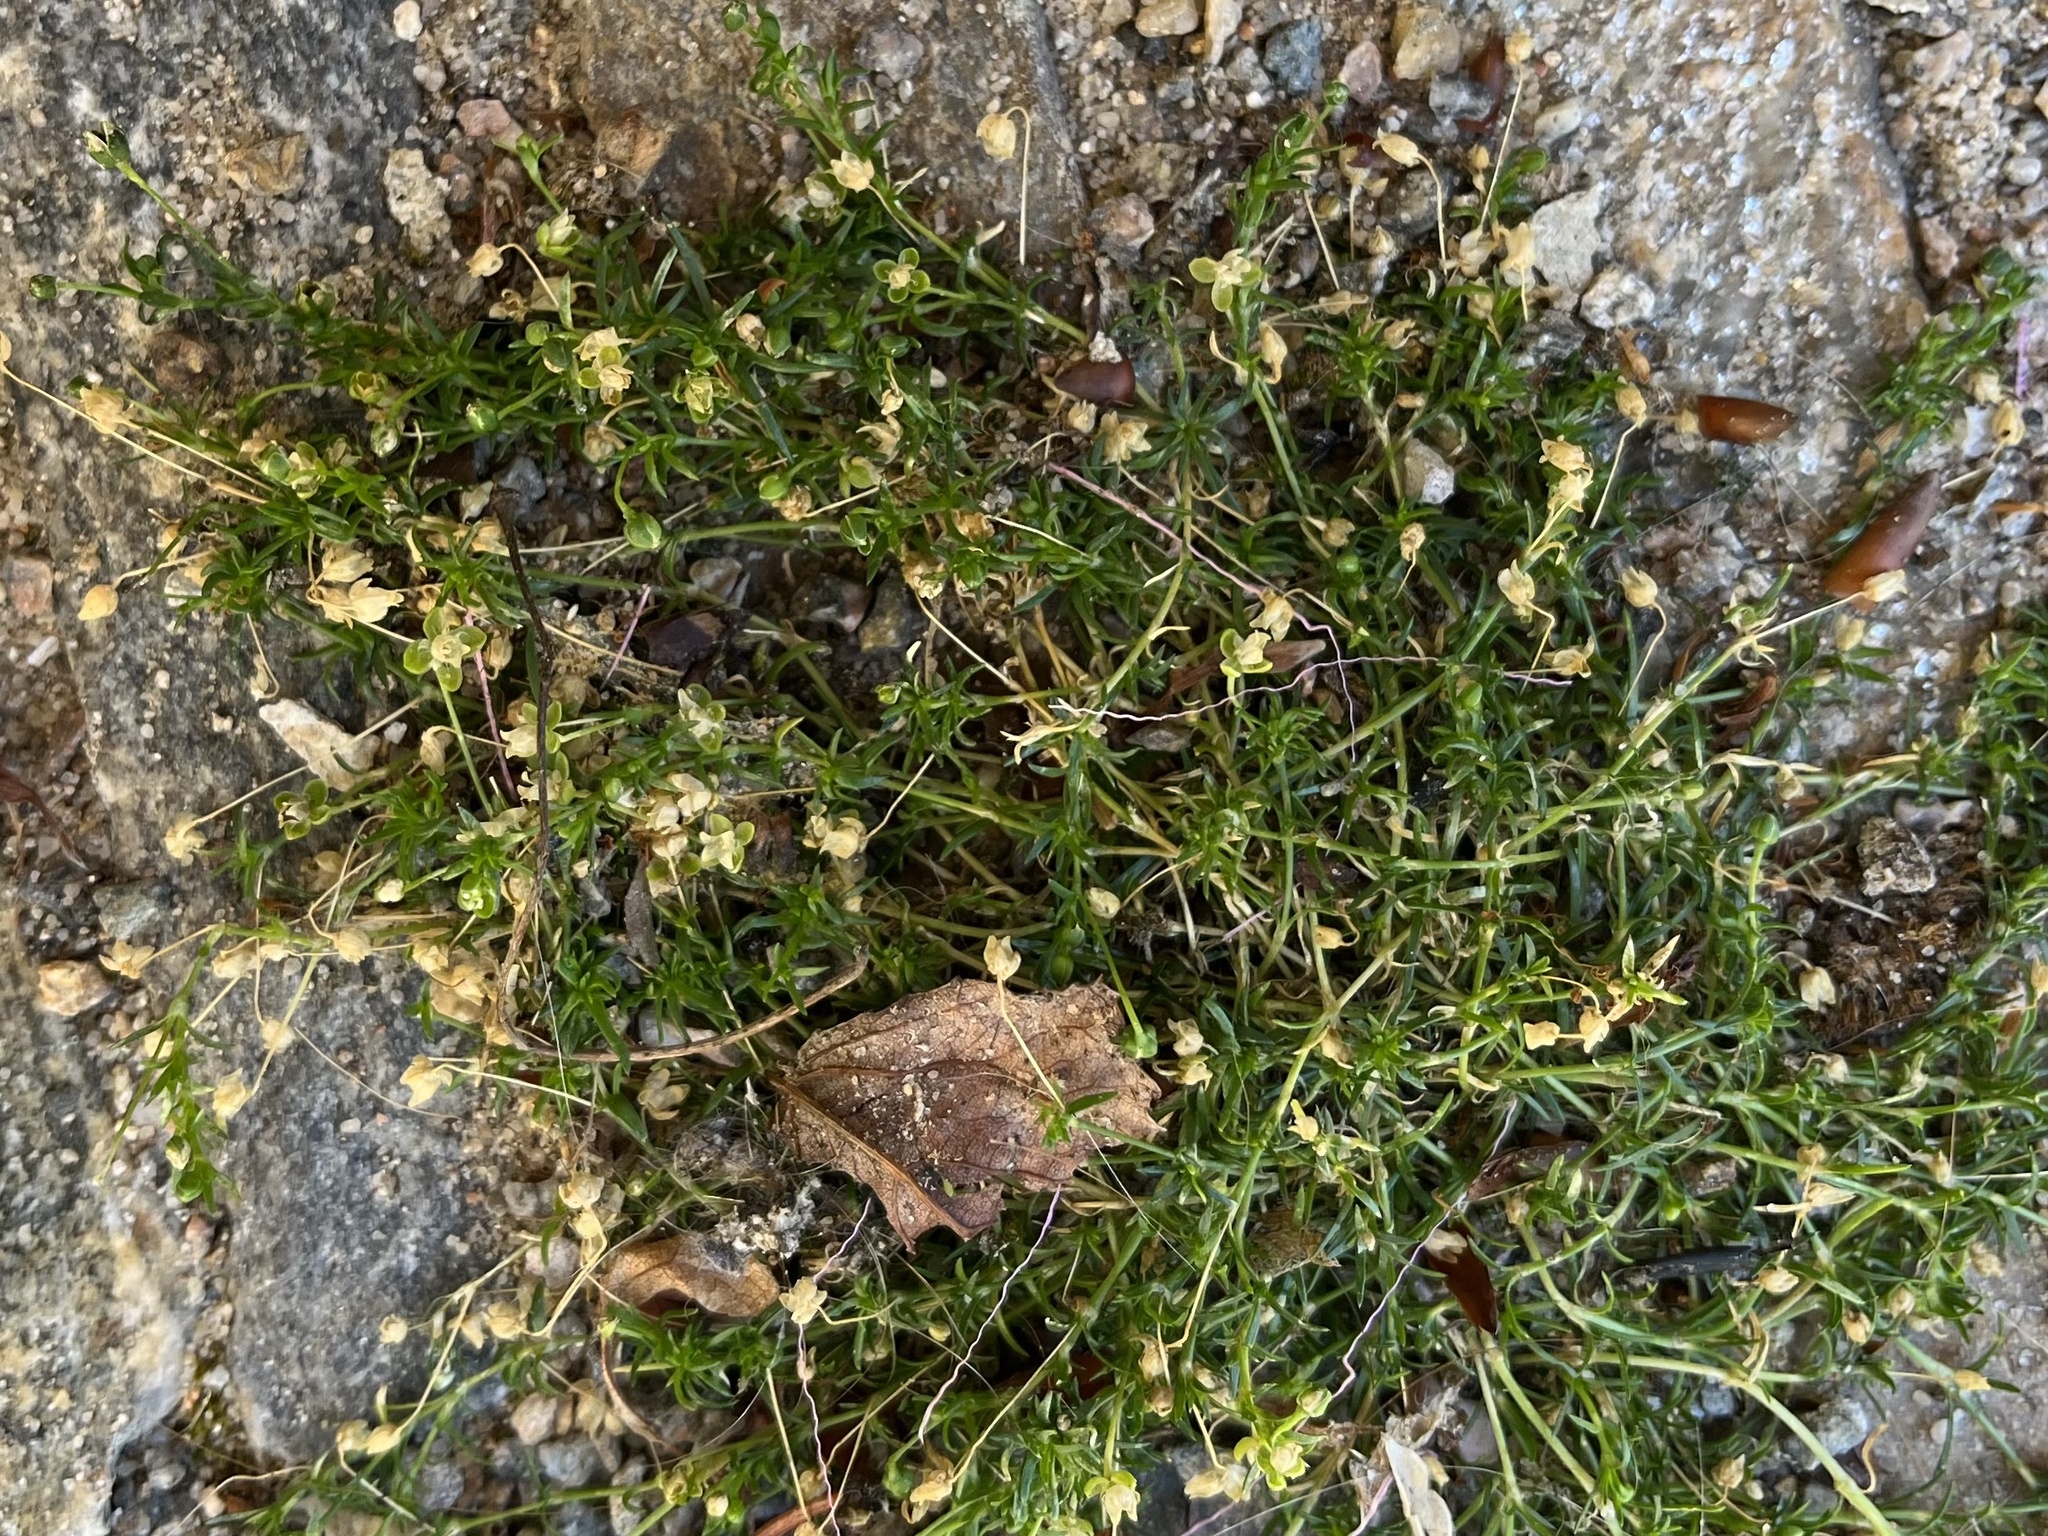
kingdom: Plantae
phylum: Tracheophyta
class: Magnoliopsida
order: Caryophyllales
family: Caryophyllaceae
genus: Sagina
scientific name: Sagina procumbens
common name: Procumbent pearlwort
